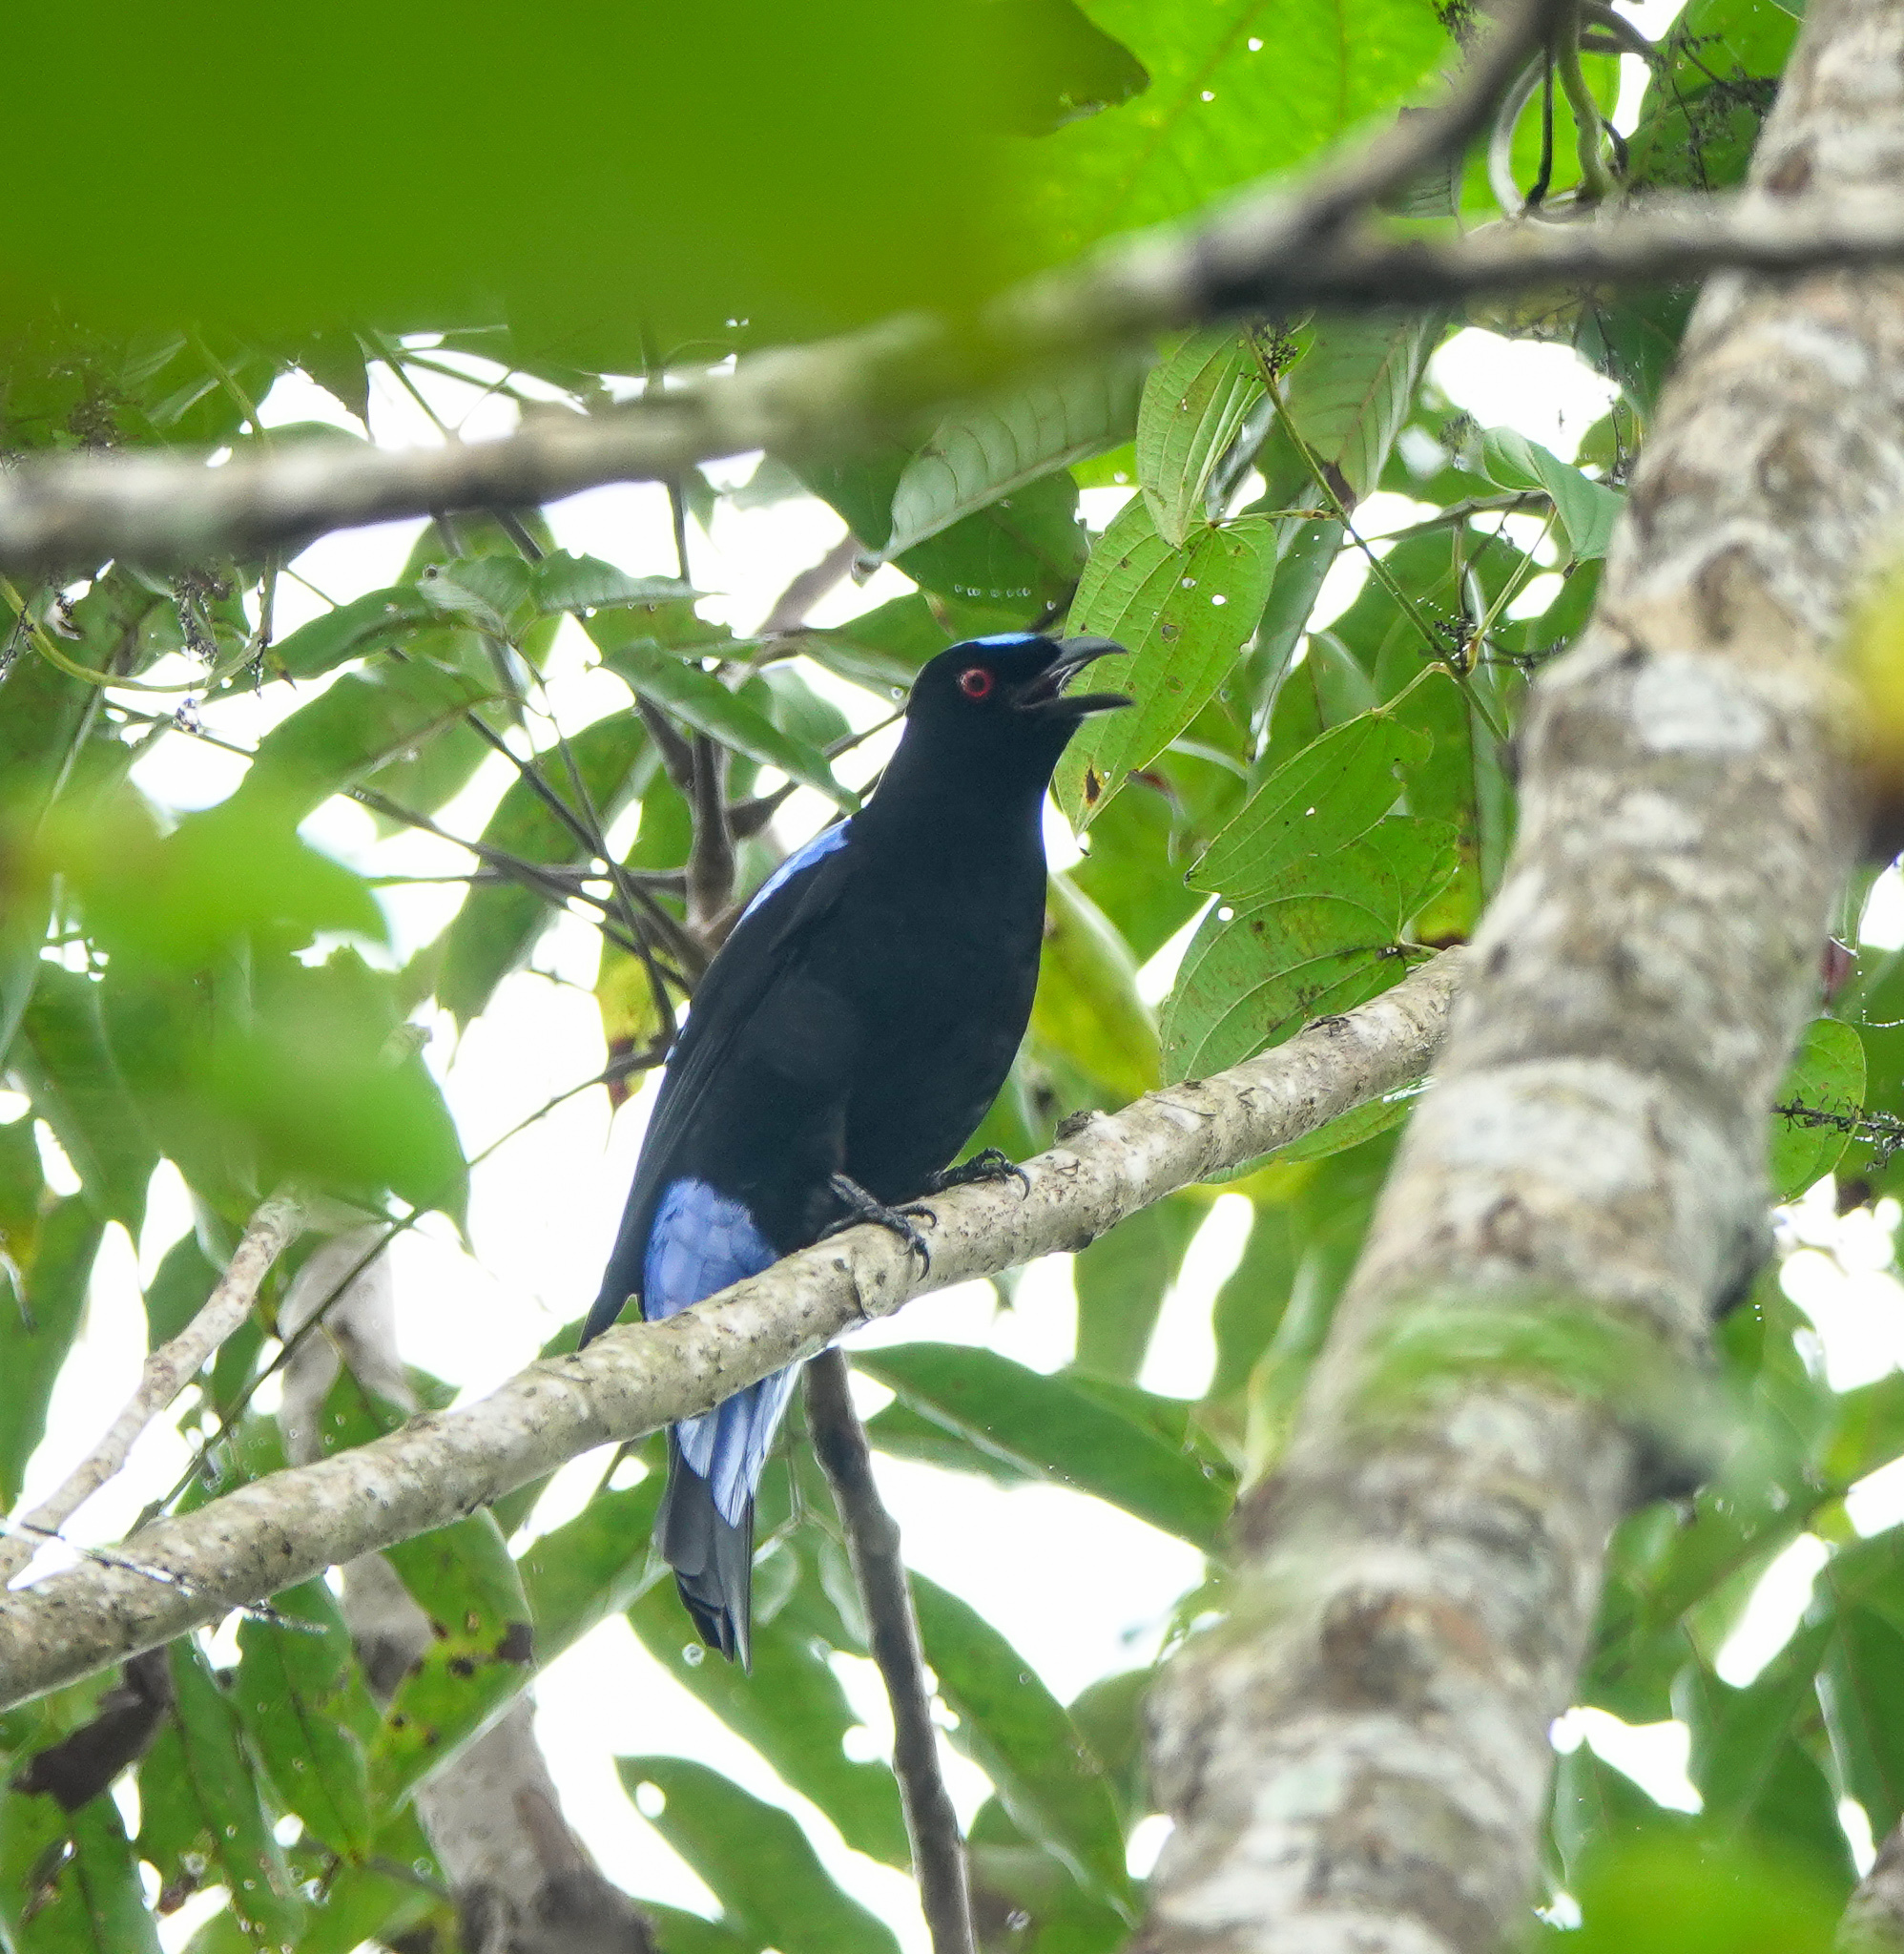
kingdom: Animalia
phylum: Chordata
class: Aves
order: Passeriformes
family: Irenidae
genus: Irena
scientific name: Irena puella
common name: Asian fairy-bluebird
